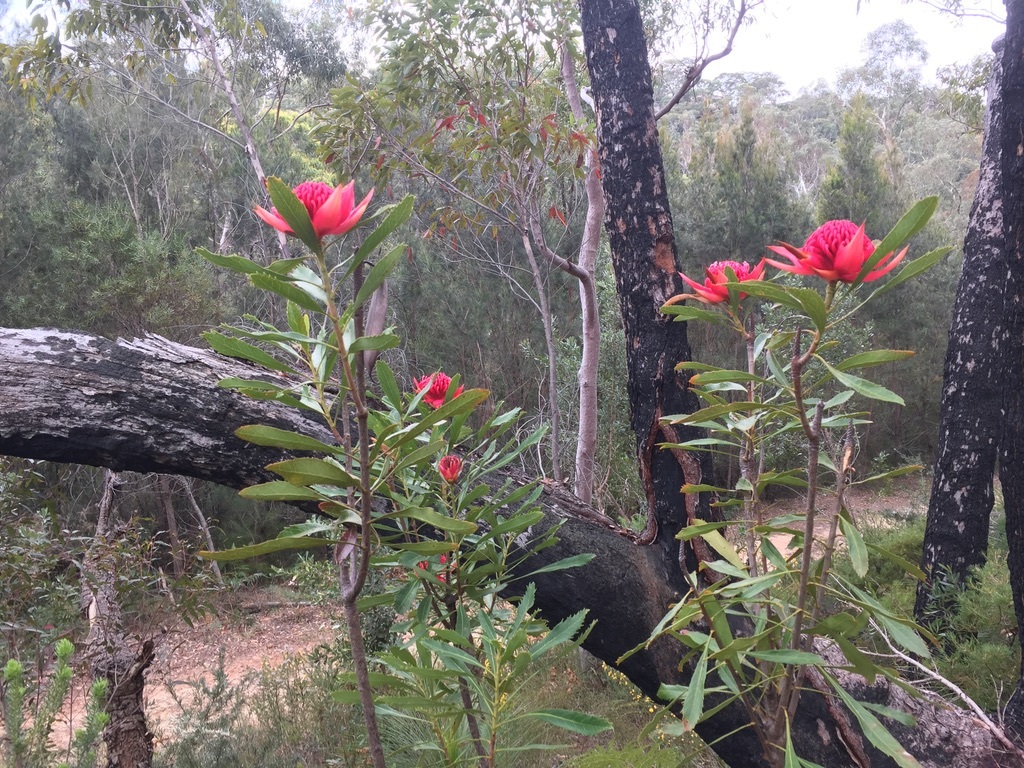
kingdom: Plantae
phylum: Tracheophyta
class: Magnoliopsida
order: Proteales
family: Proteaceae
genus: Telopea
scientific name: Telopea speciosissima
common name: New south wales waratah
